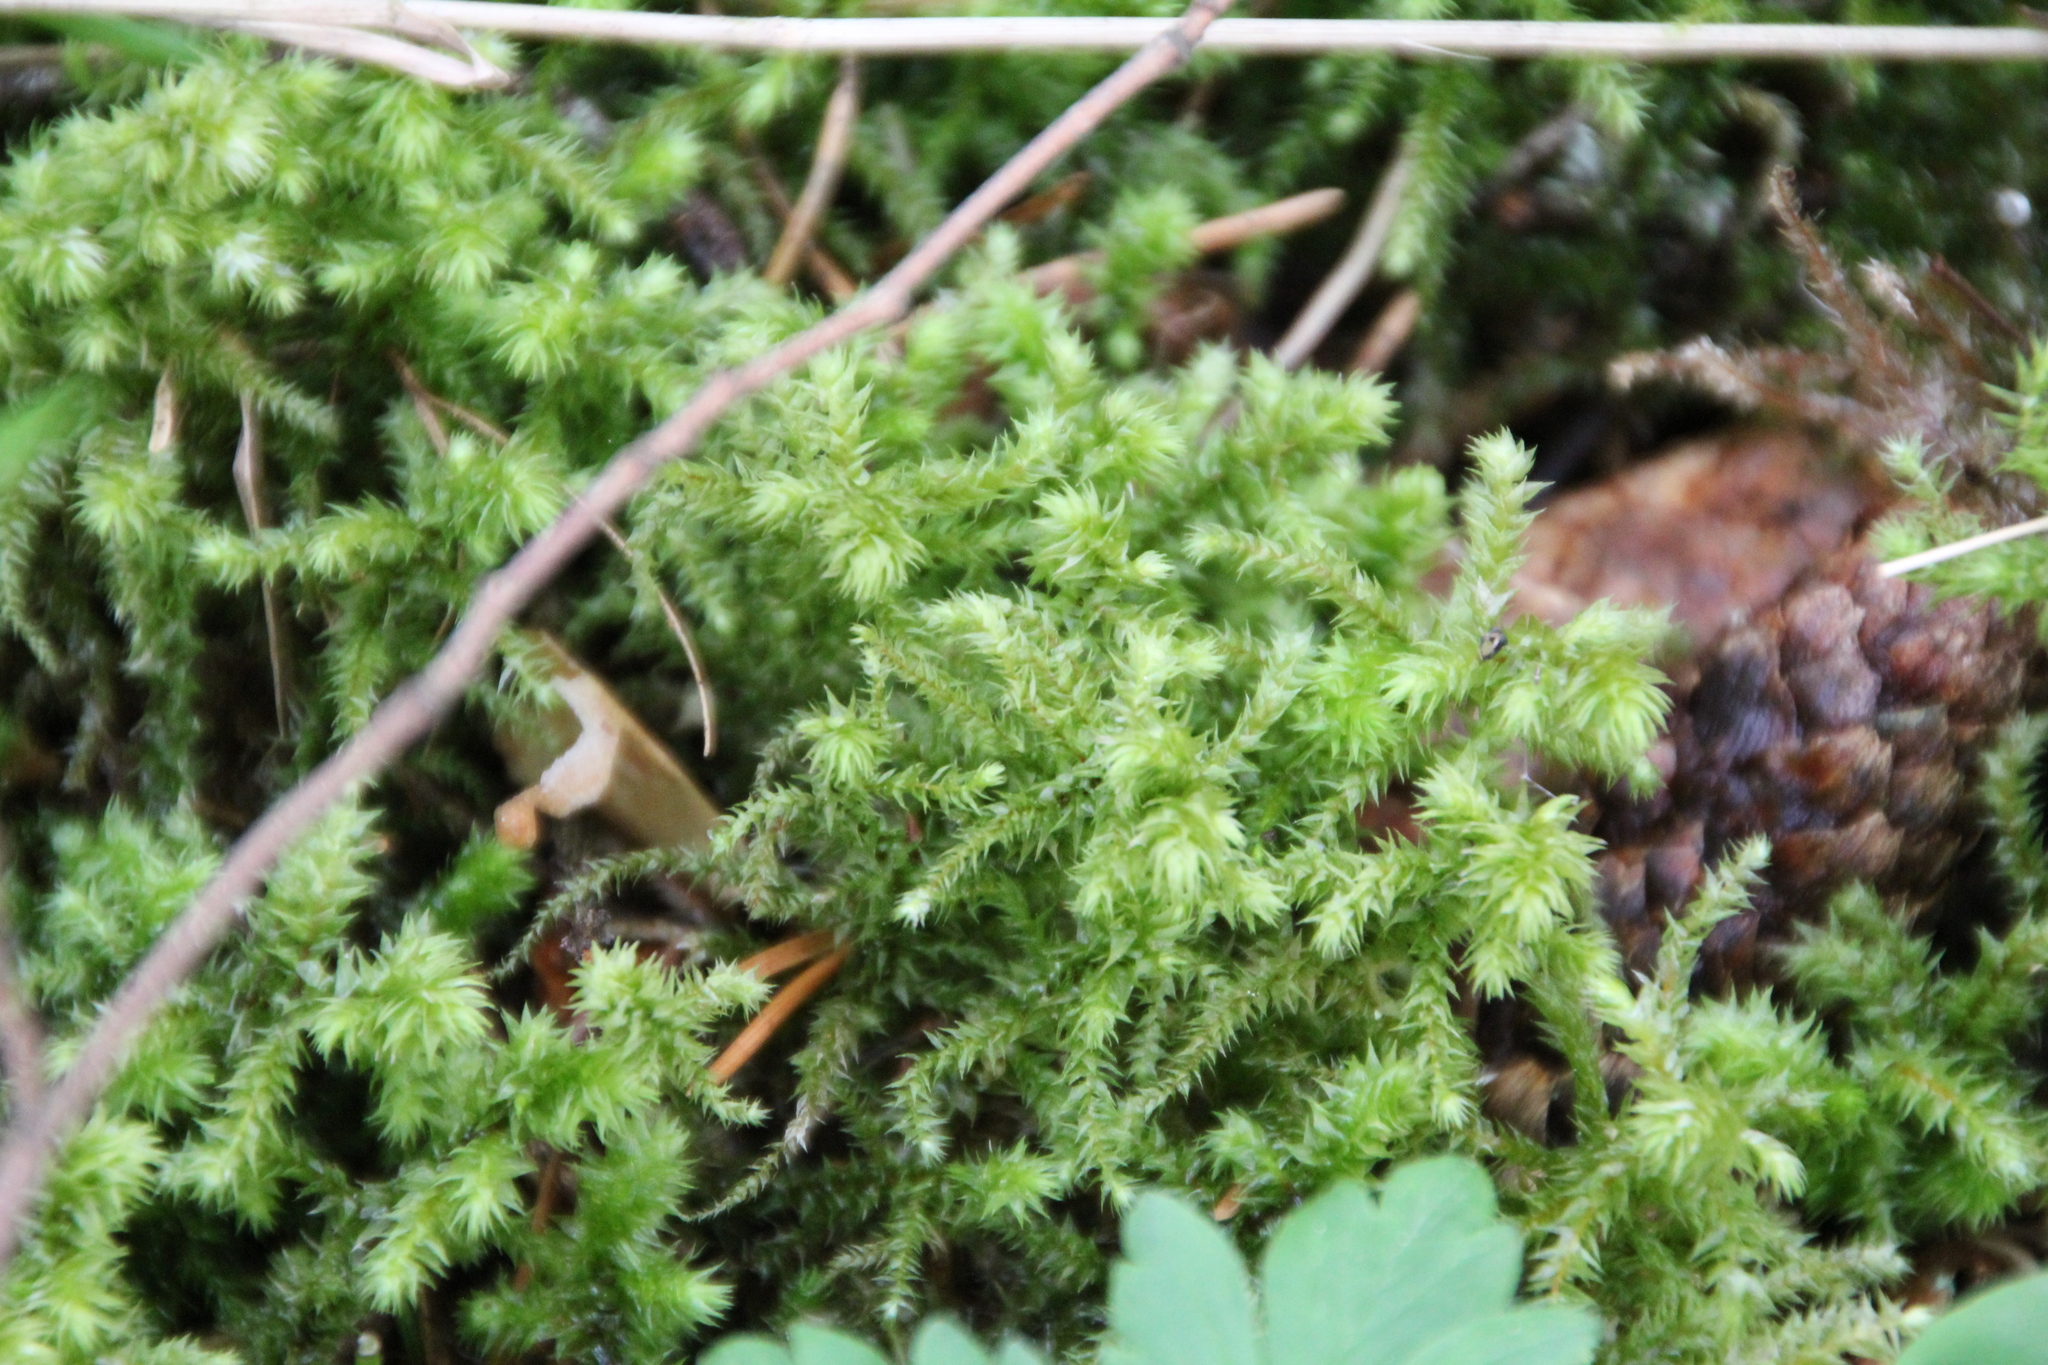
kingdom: Plantae
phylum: Bryophyta
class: Bryopsida
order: Hypnales
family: Hylocomiaceae
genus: Hylocomiadelphus
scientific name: Hylocomiadelphus triquetrus
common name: Rough goose neck moss
